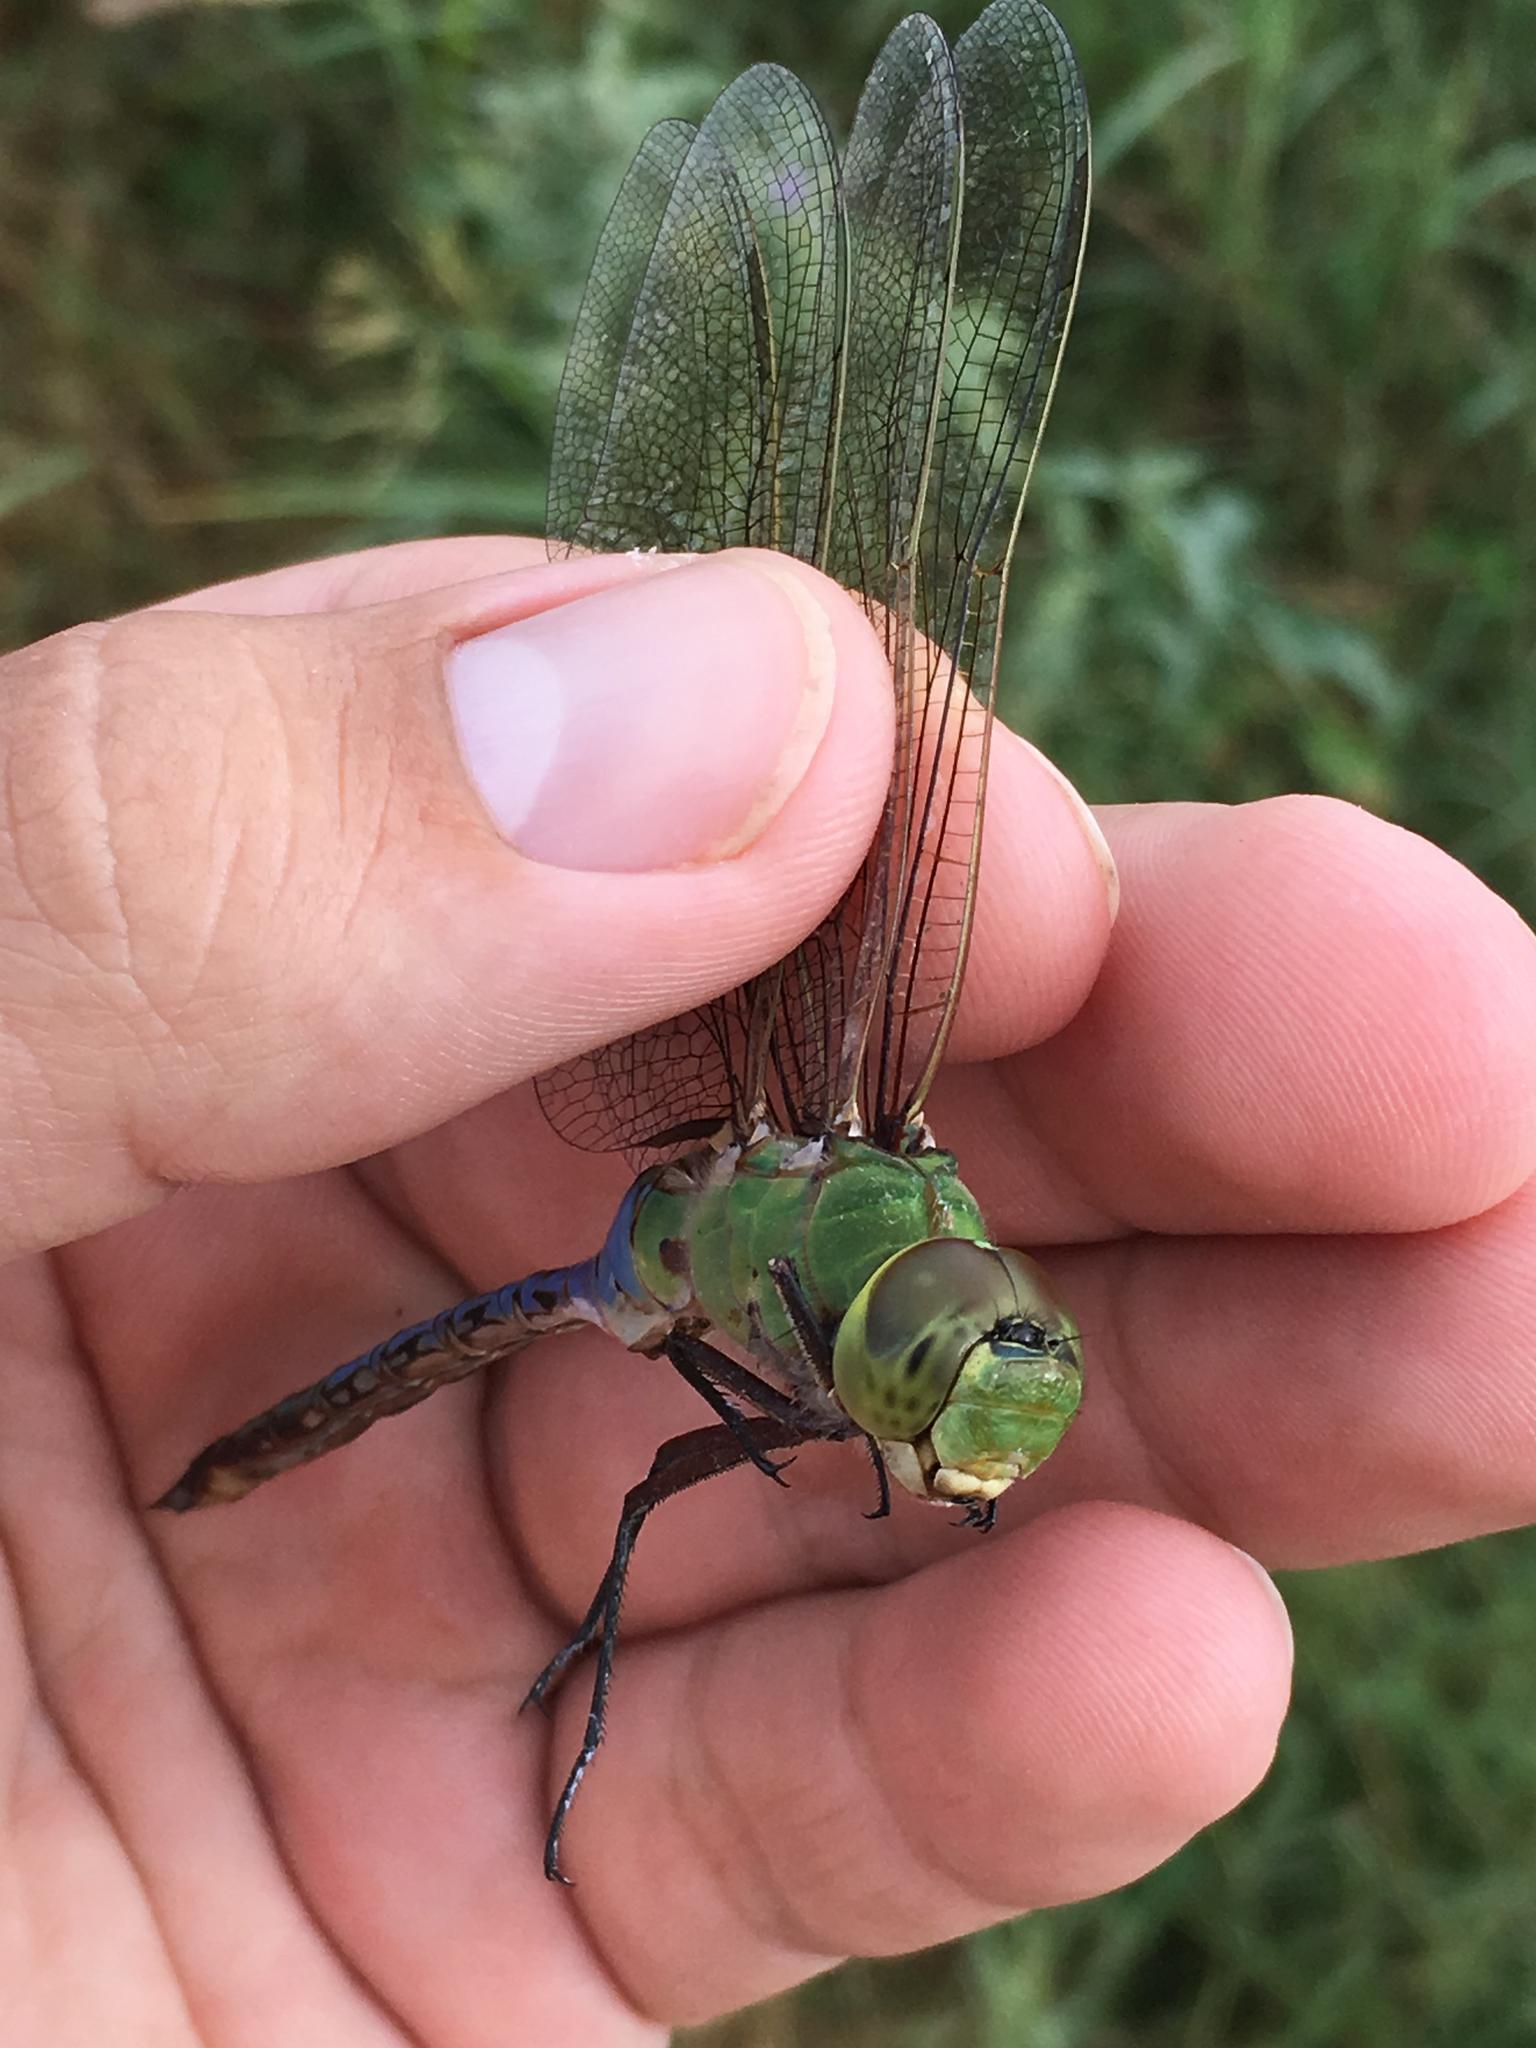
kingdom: Animalia
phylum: Arthropoda
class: Insecta
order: Odonata
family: Aeshnidae
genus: Anax
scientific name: Anax junius
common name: Common green darner
